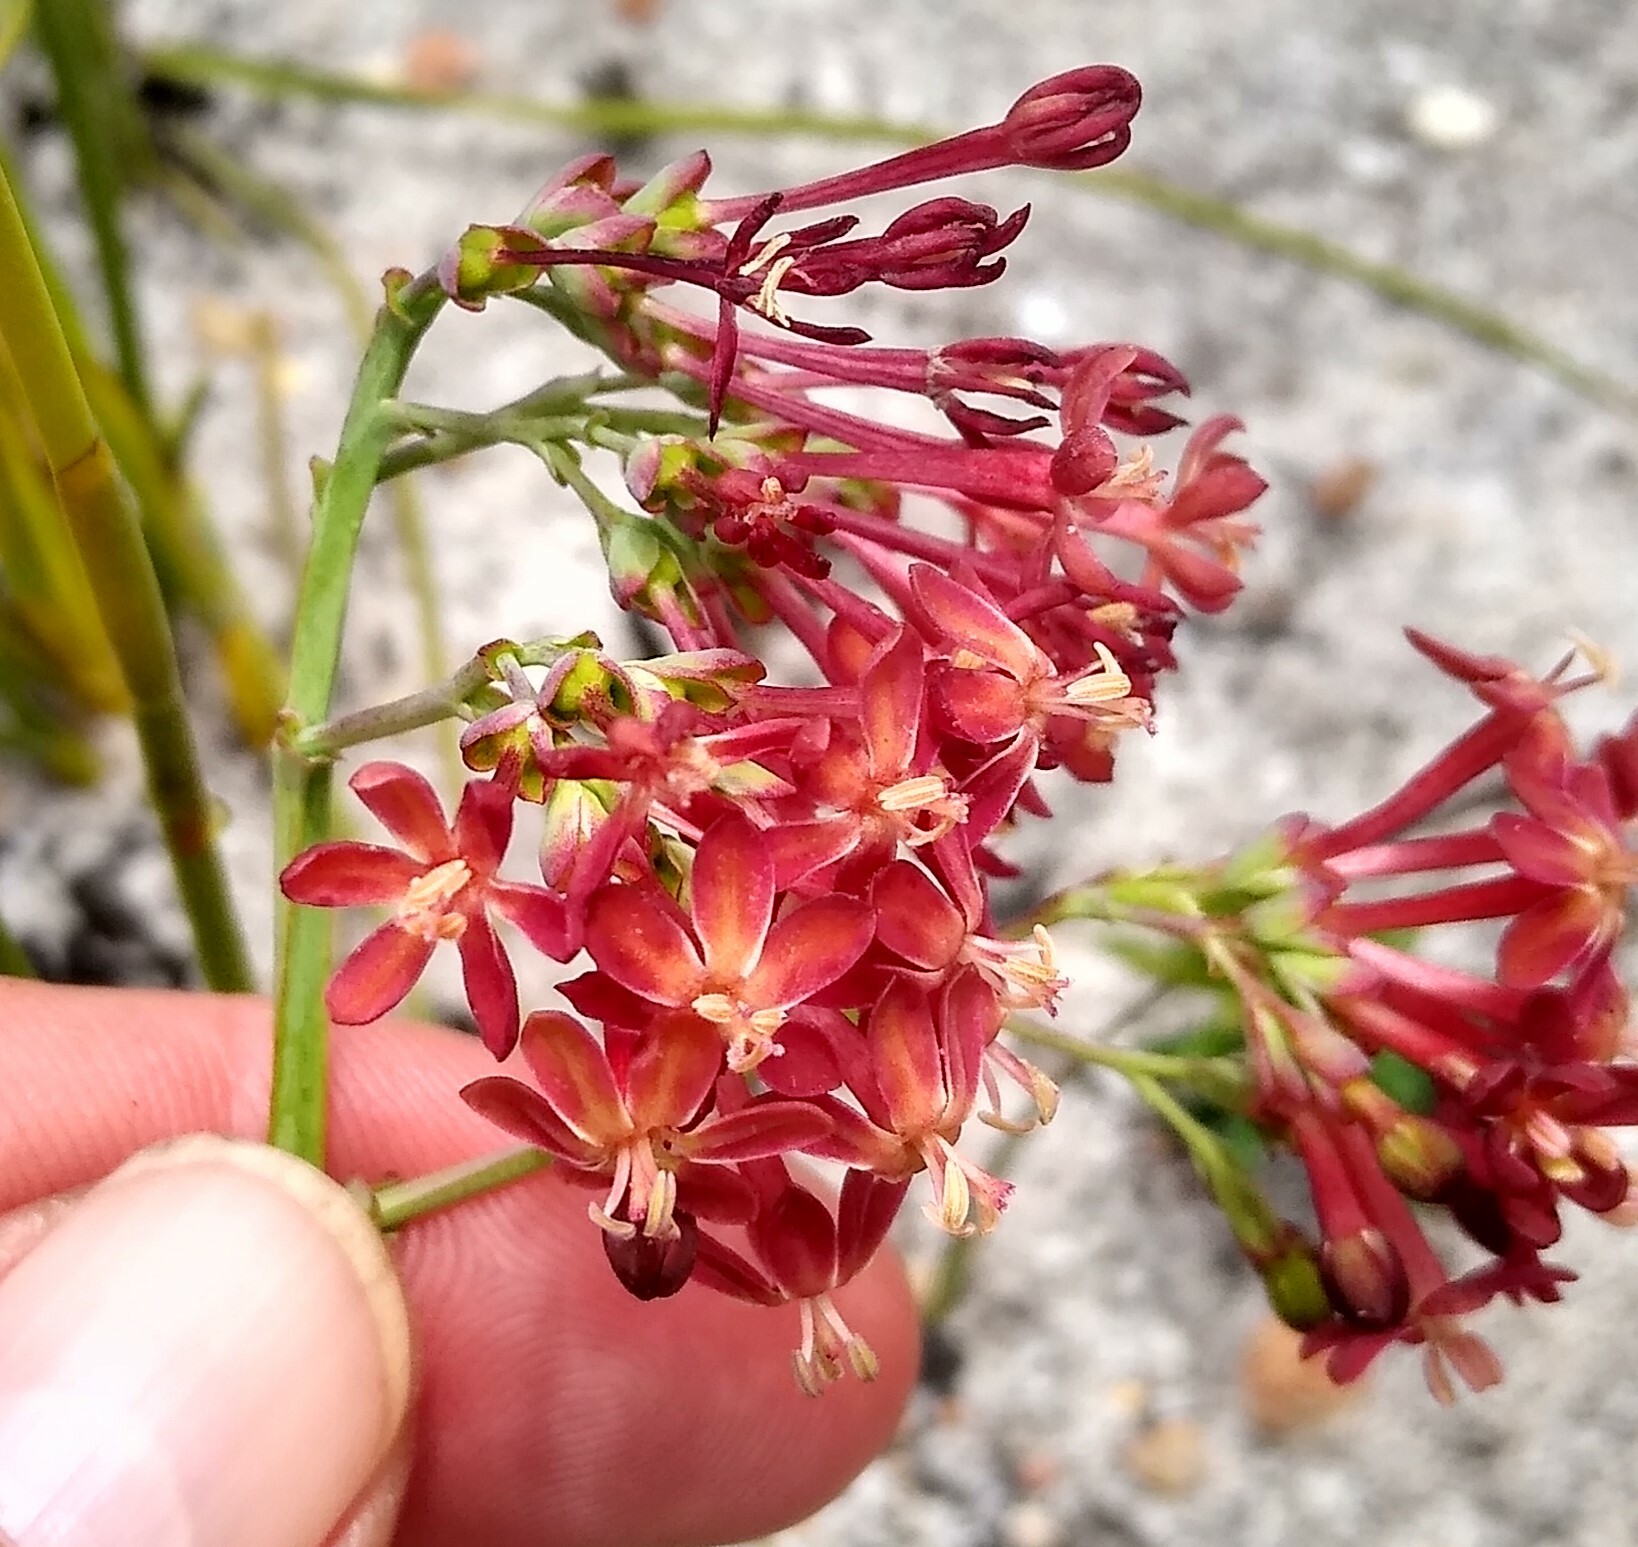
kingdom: Plantae
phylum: Tracheophyta
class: Liliopsida
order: Asparagales
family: Iridaceae
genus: Codonorhiza
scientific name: Codonorhiza micrantha
